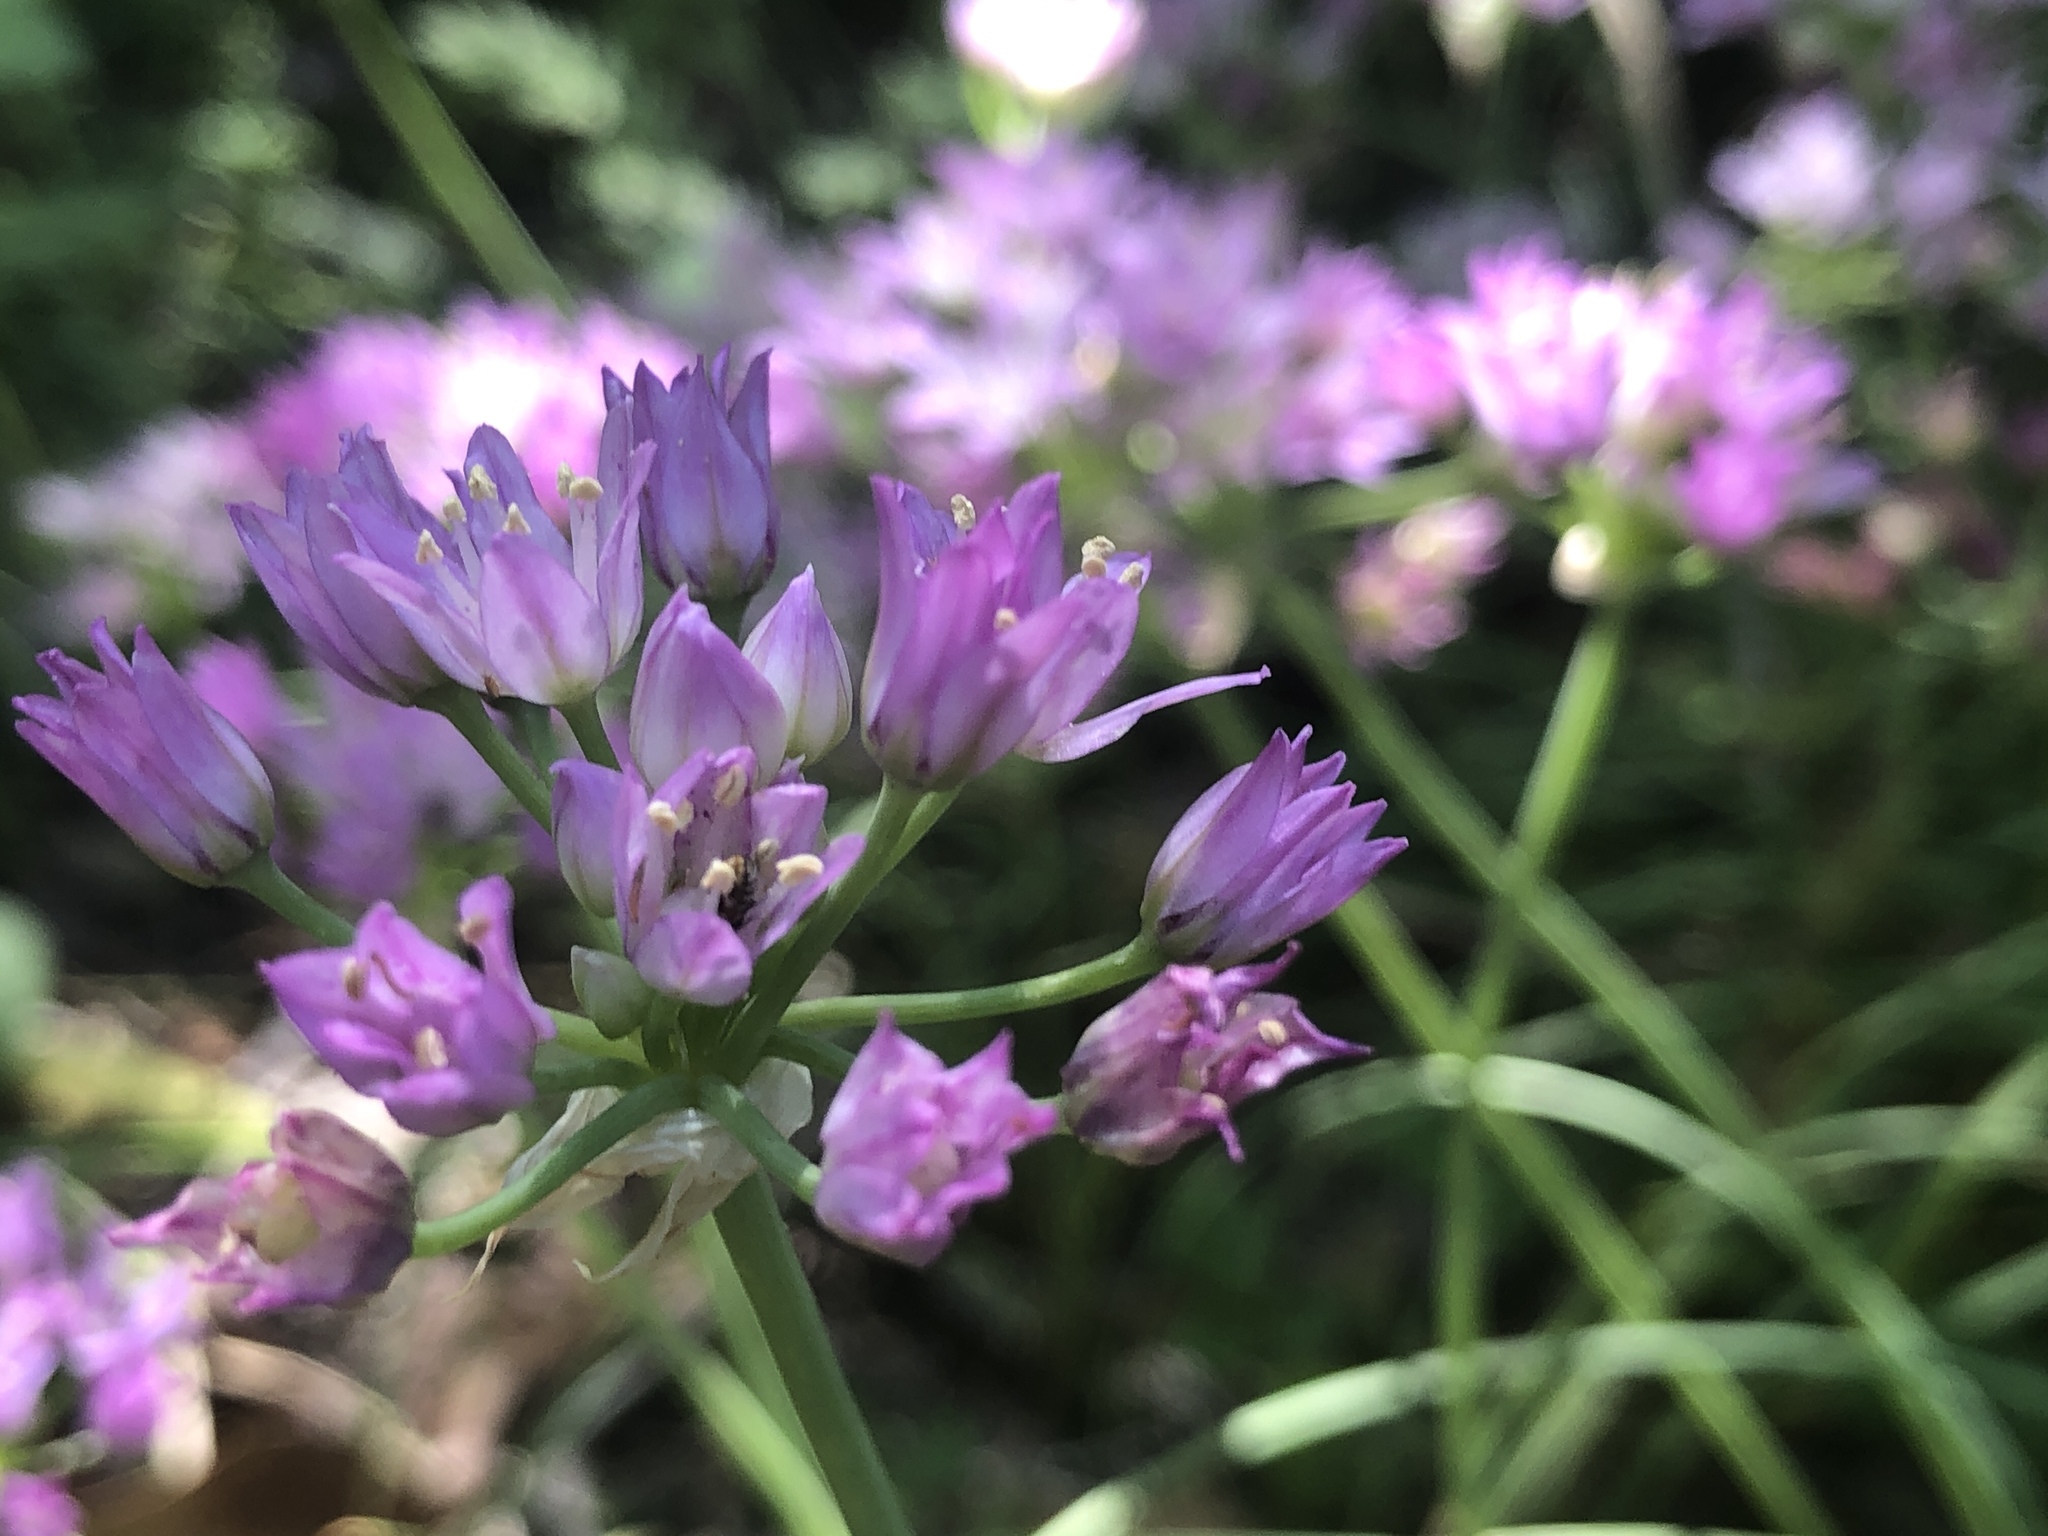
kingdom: Plantae
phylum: Tracheophyta
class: Liliopsida
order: Asparagales
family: Amaryllidaceae
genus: Allium
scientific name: Allium drummondii
